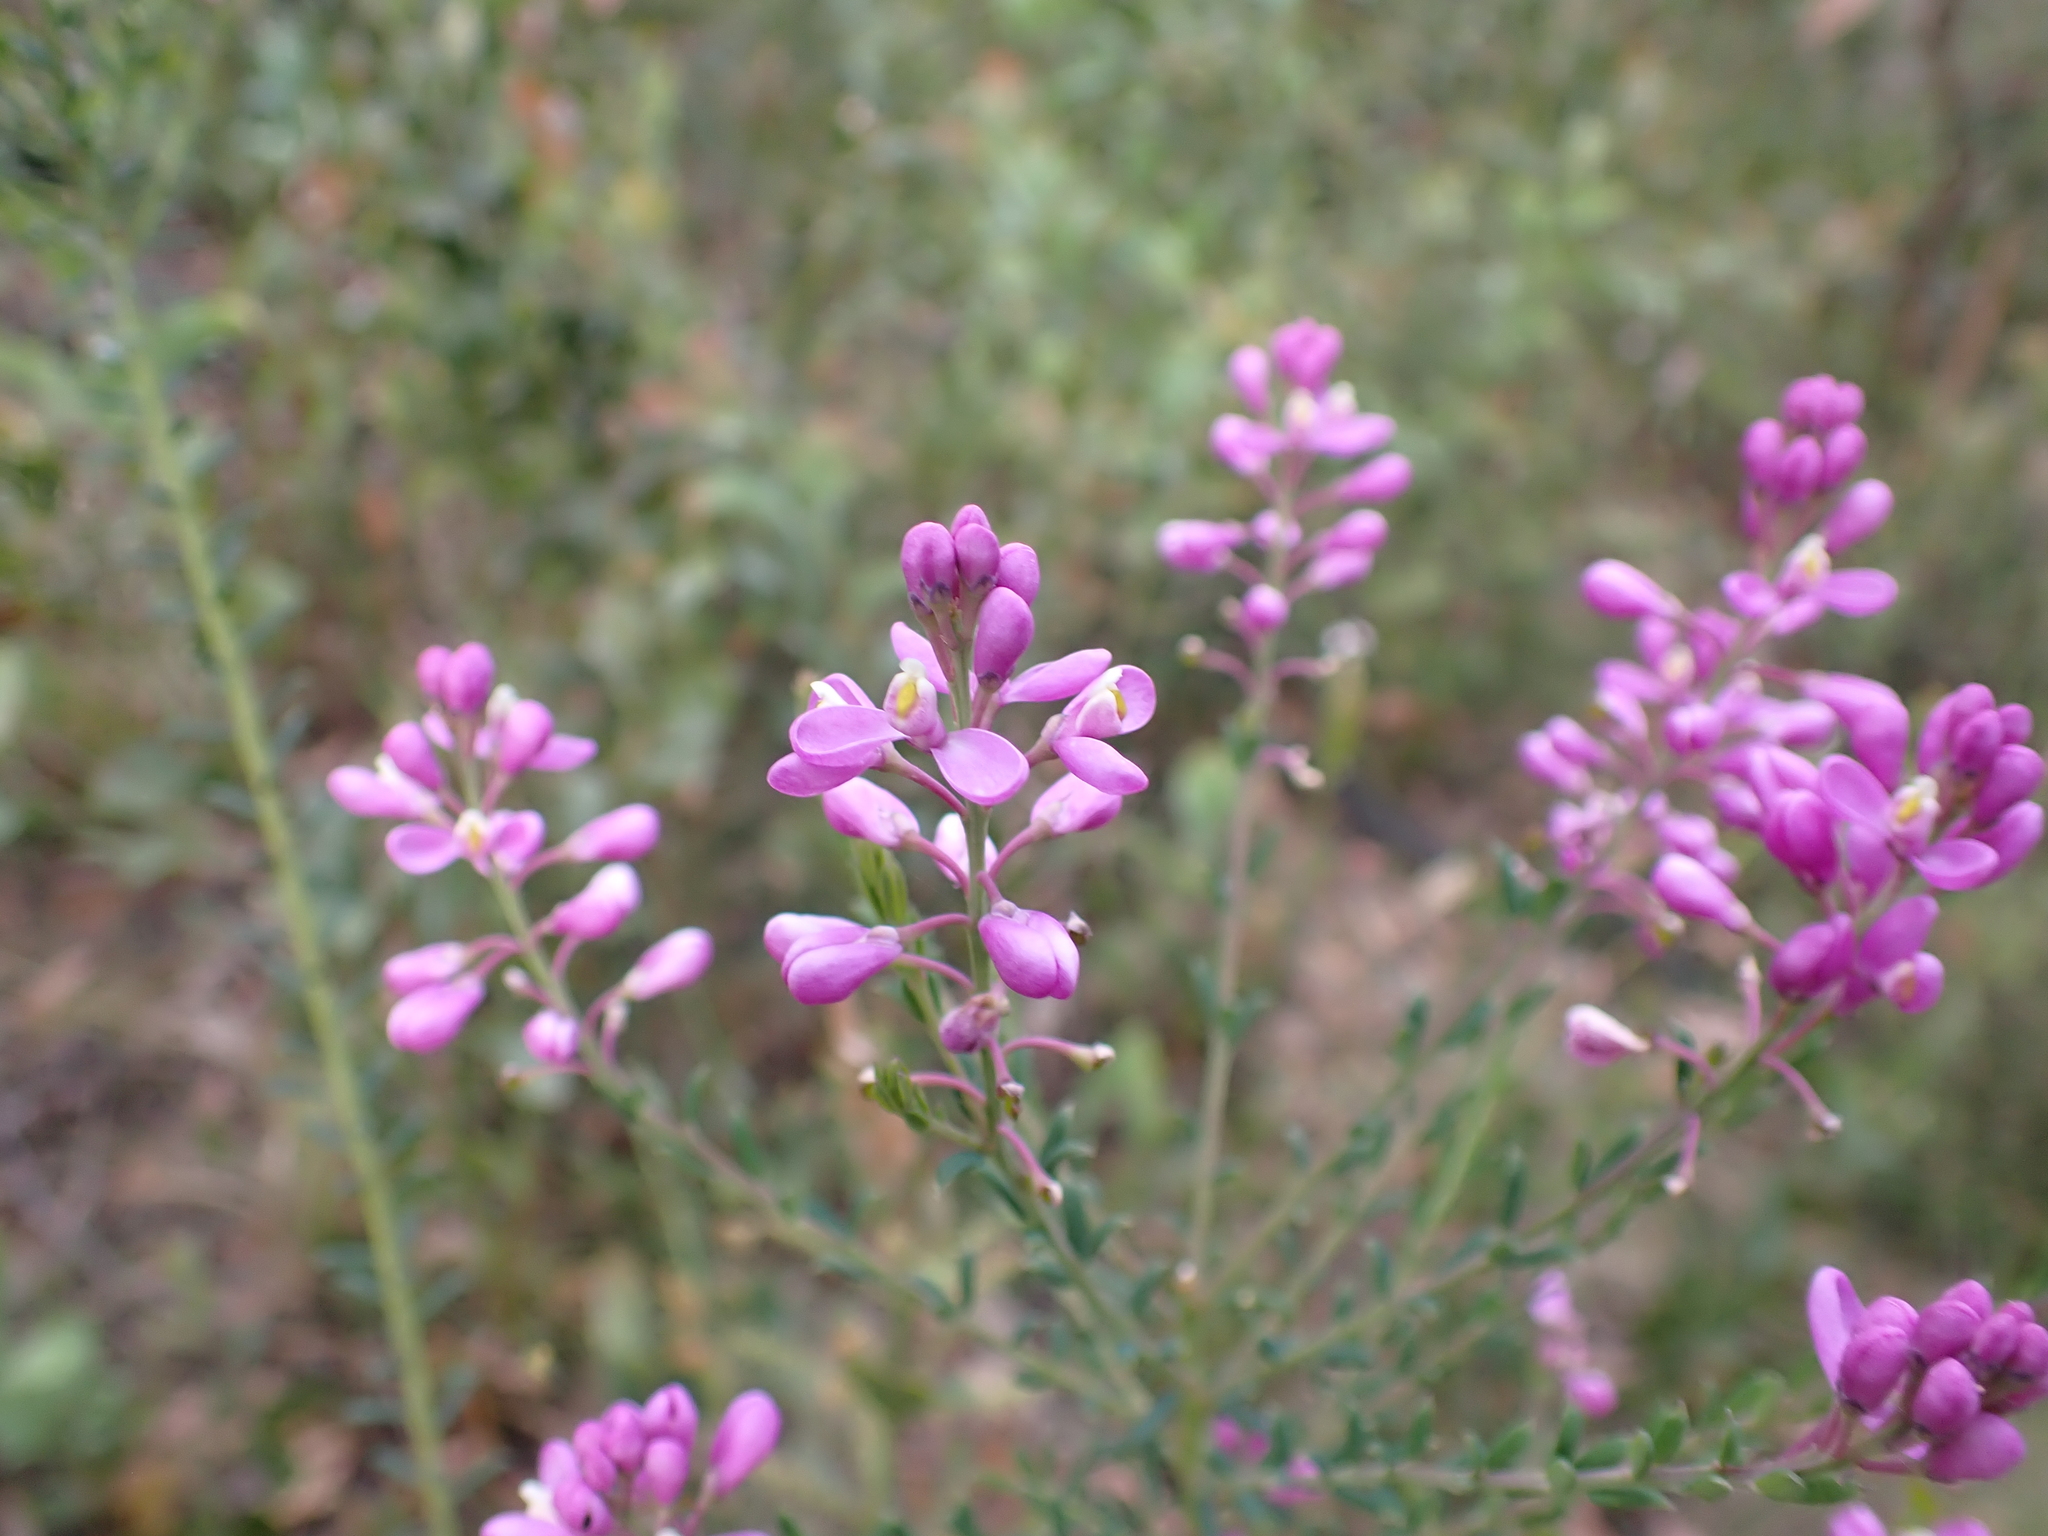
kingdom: Plantae
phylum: Tracheophyta
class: Magnoliopsida
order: Fabales
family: Polygalaceae
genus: Comesperma
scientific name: Comesperma ericinum
